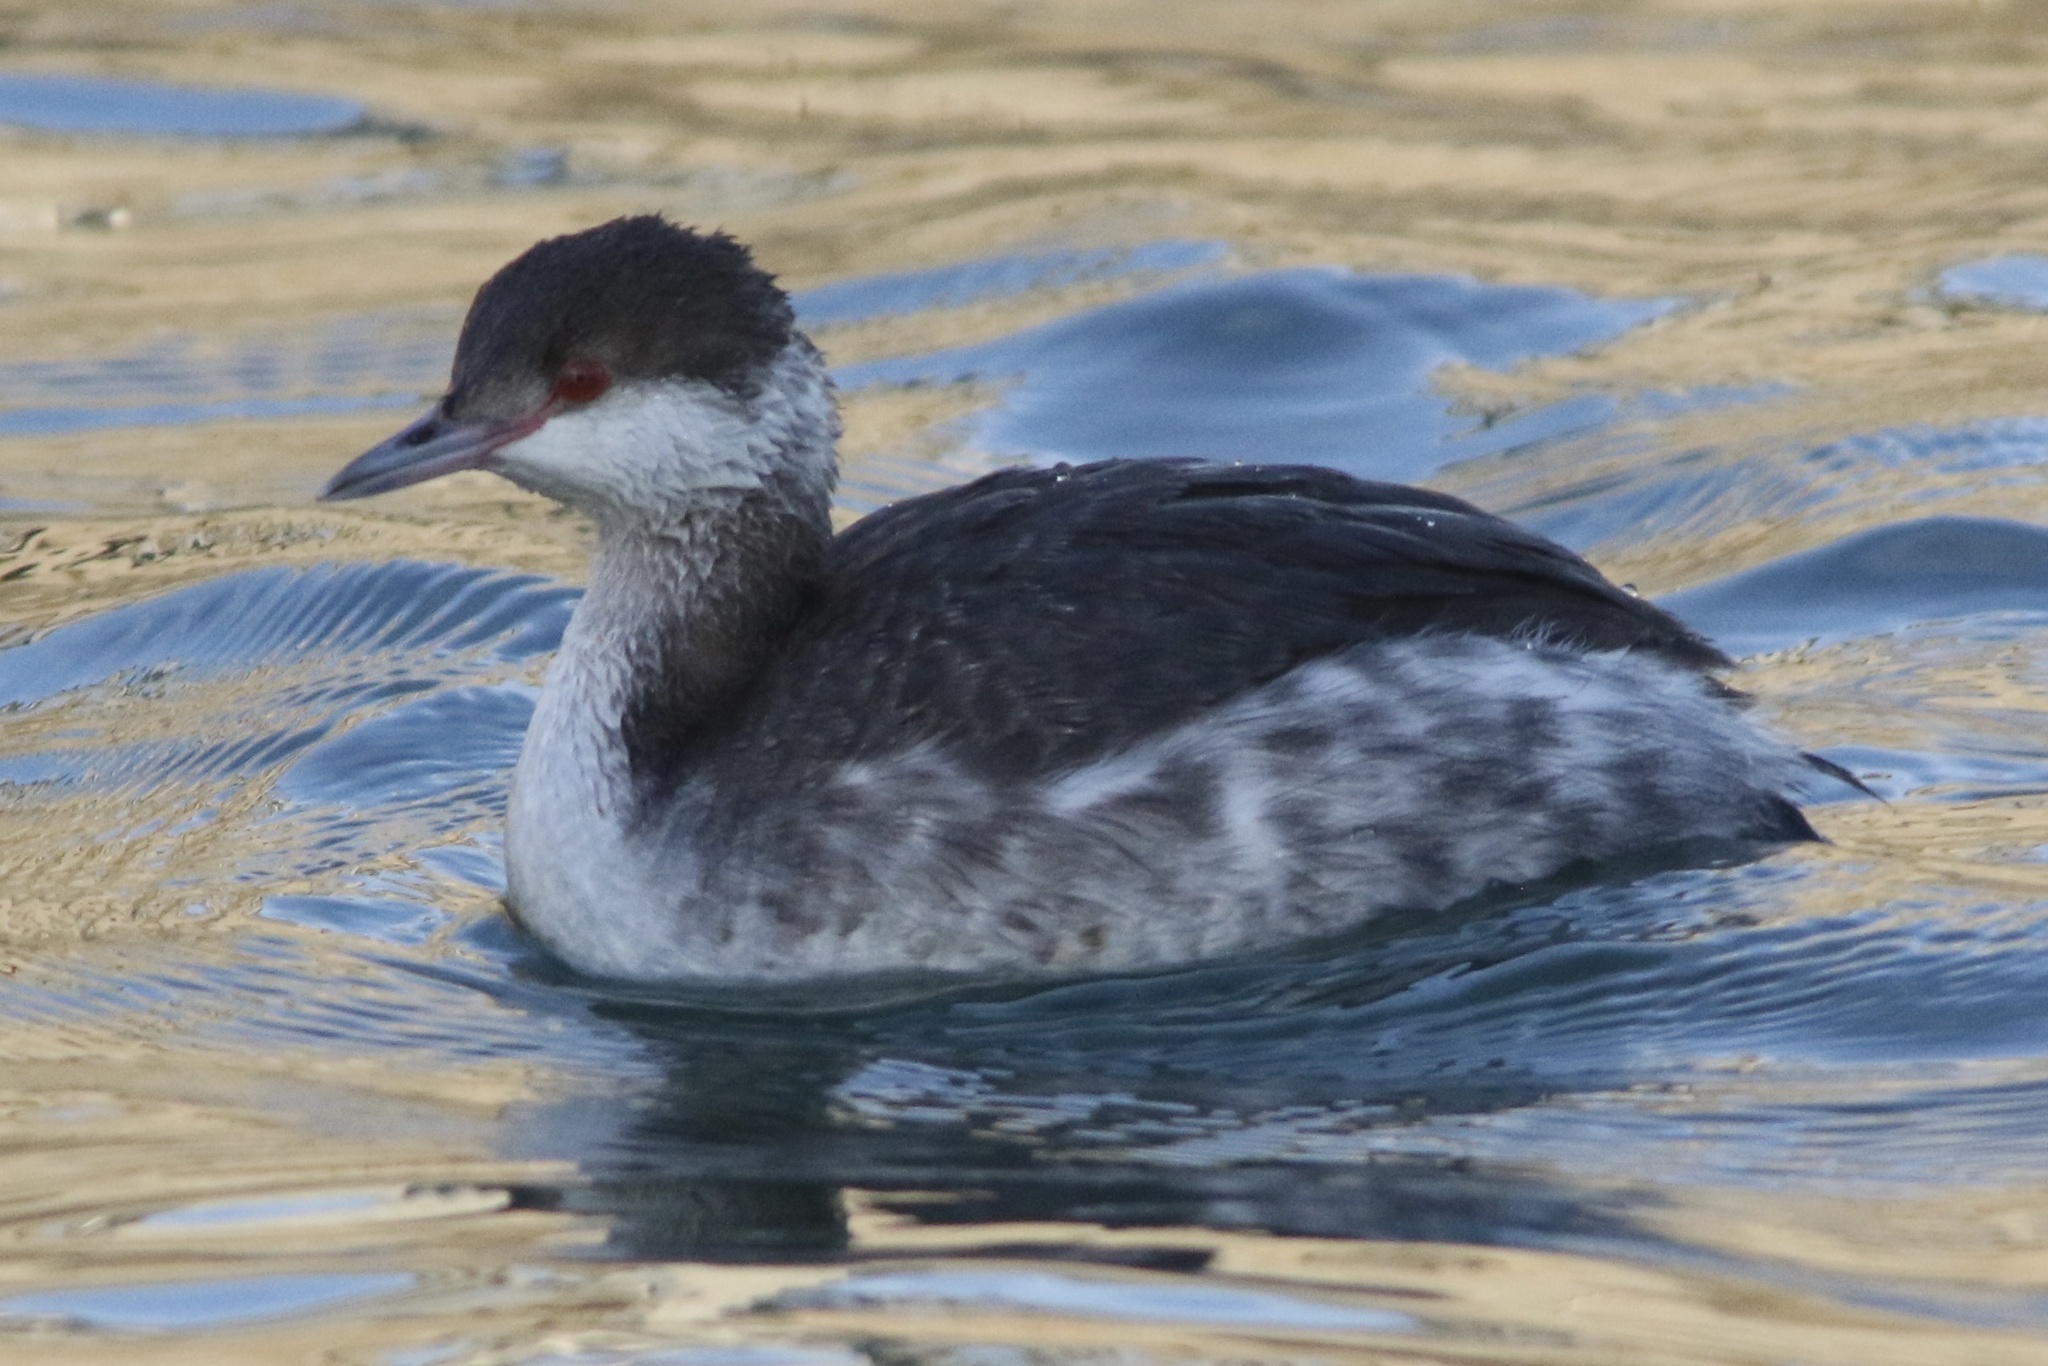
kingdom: Animalia
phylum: Chordata
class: Aves
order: Podicipediformes
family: Podicipedidae
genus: Podiceps
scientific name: Podiceps auritus
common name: Horned grebe
